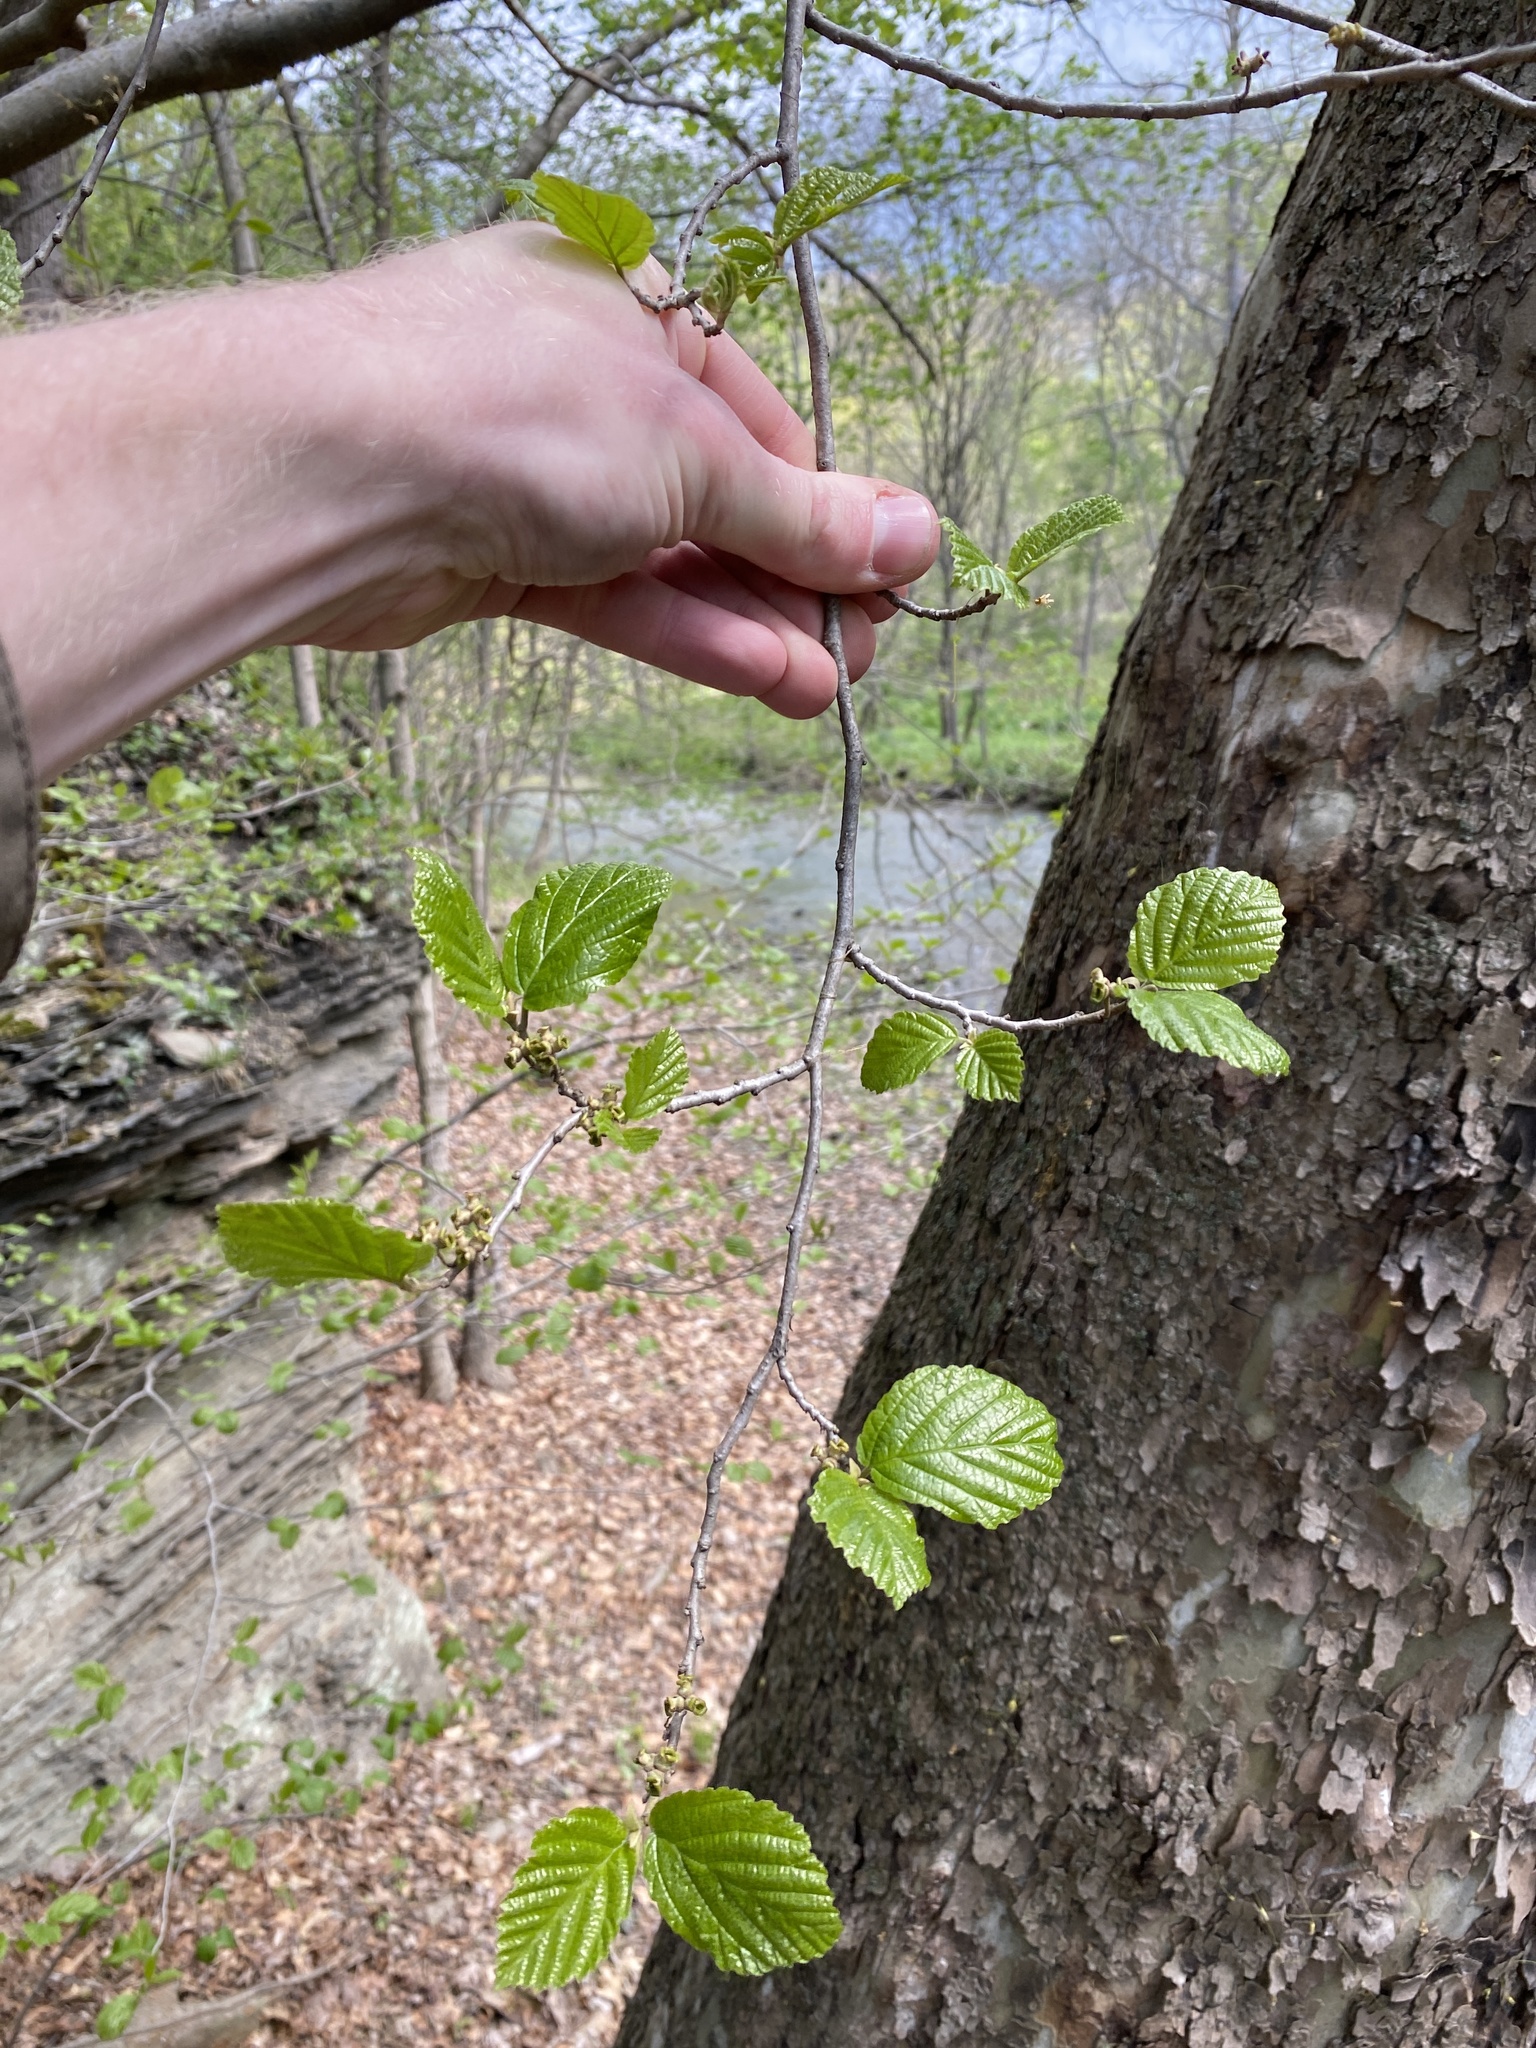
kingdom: Plantae
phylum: Tracheophyta
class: Magnoliopsida
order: Saxifragales
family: Hamamelidaceae
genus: Hamamelis
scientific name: Hamamelis virginiana
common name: Witch-hazel
